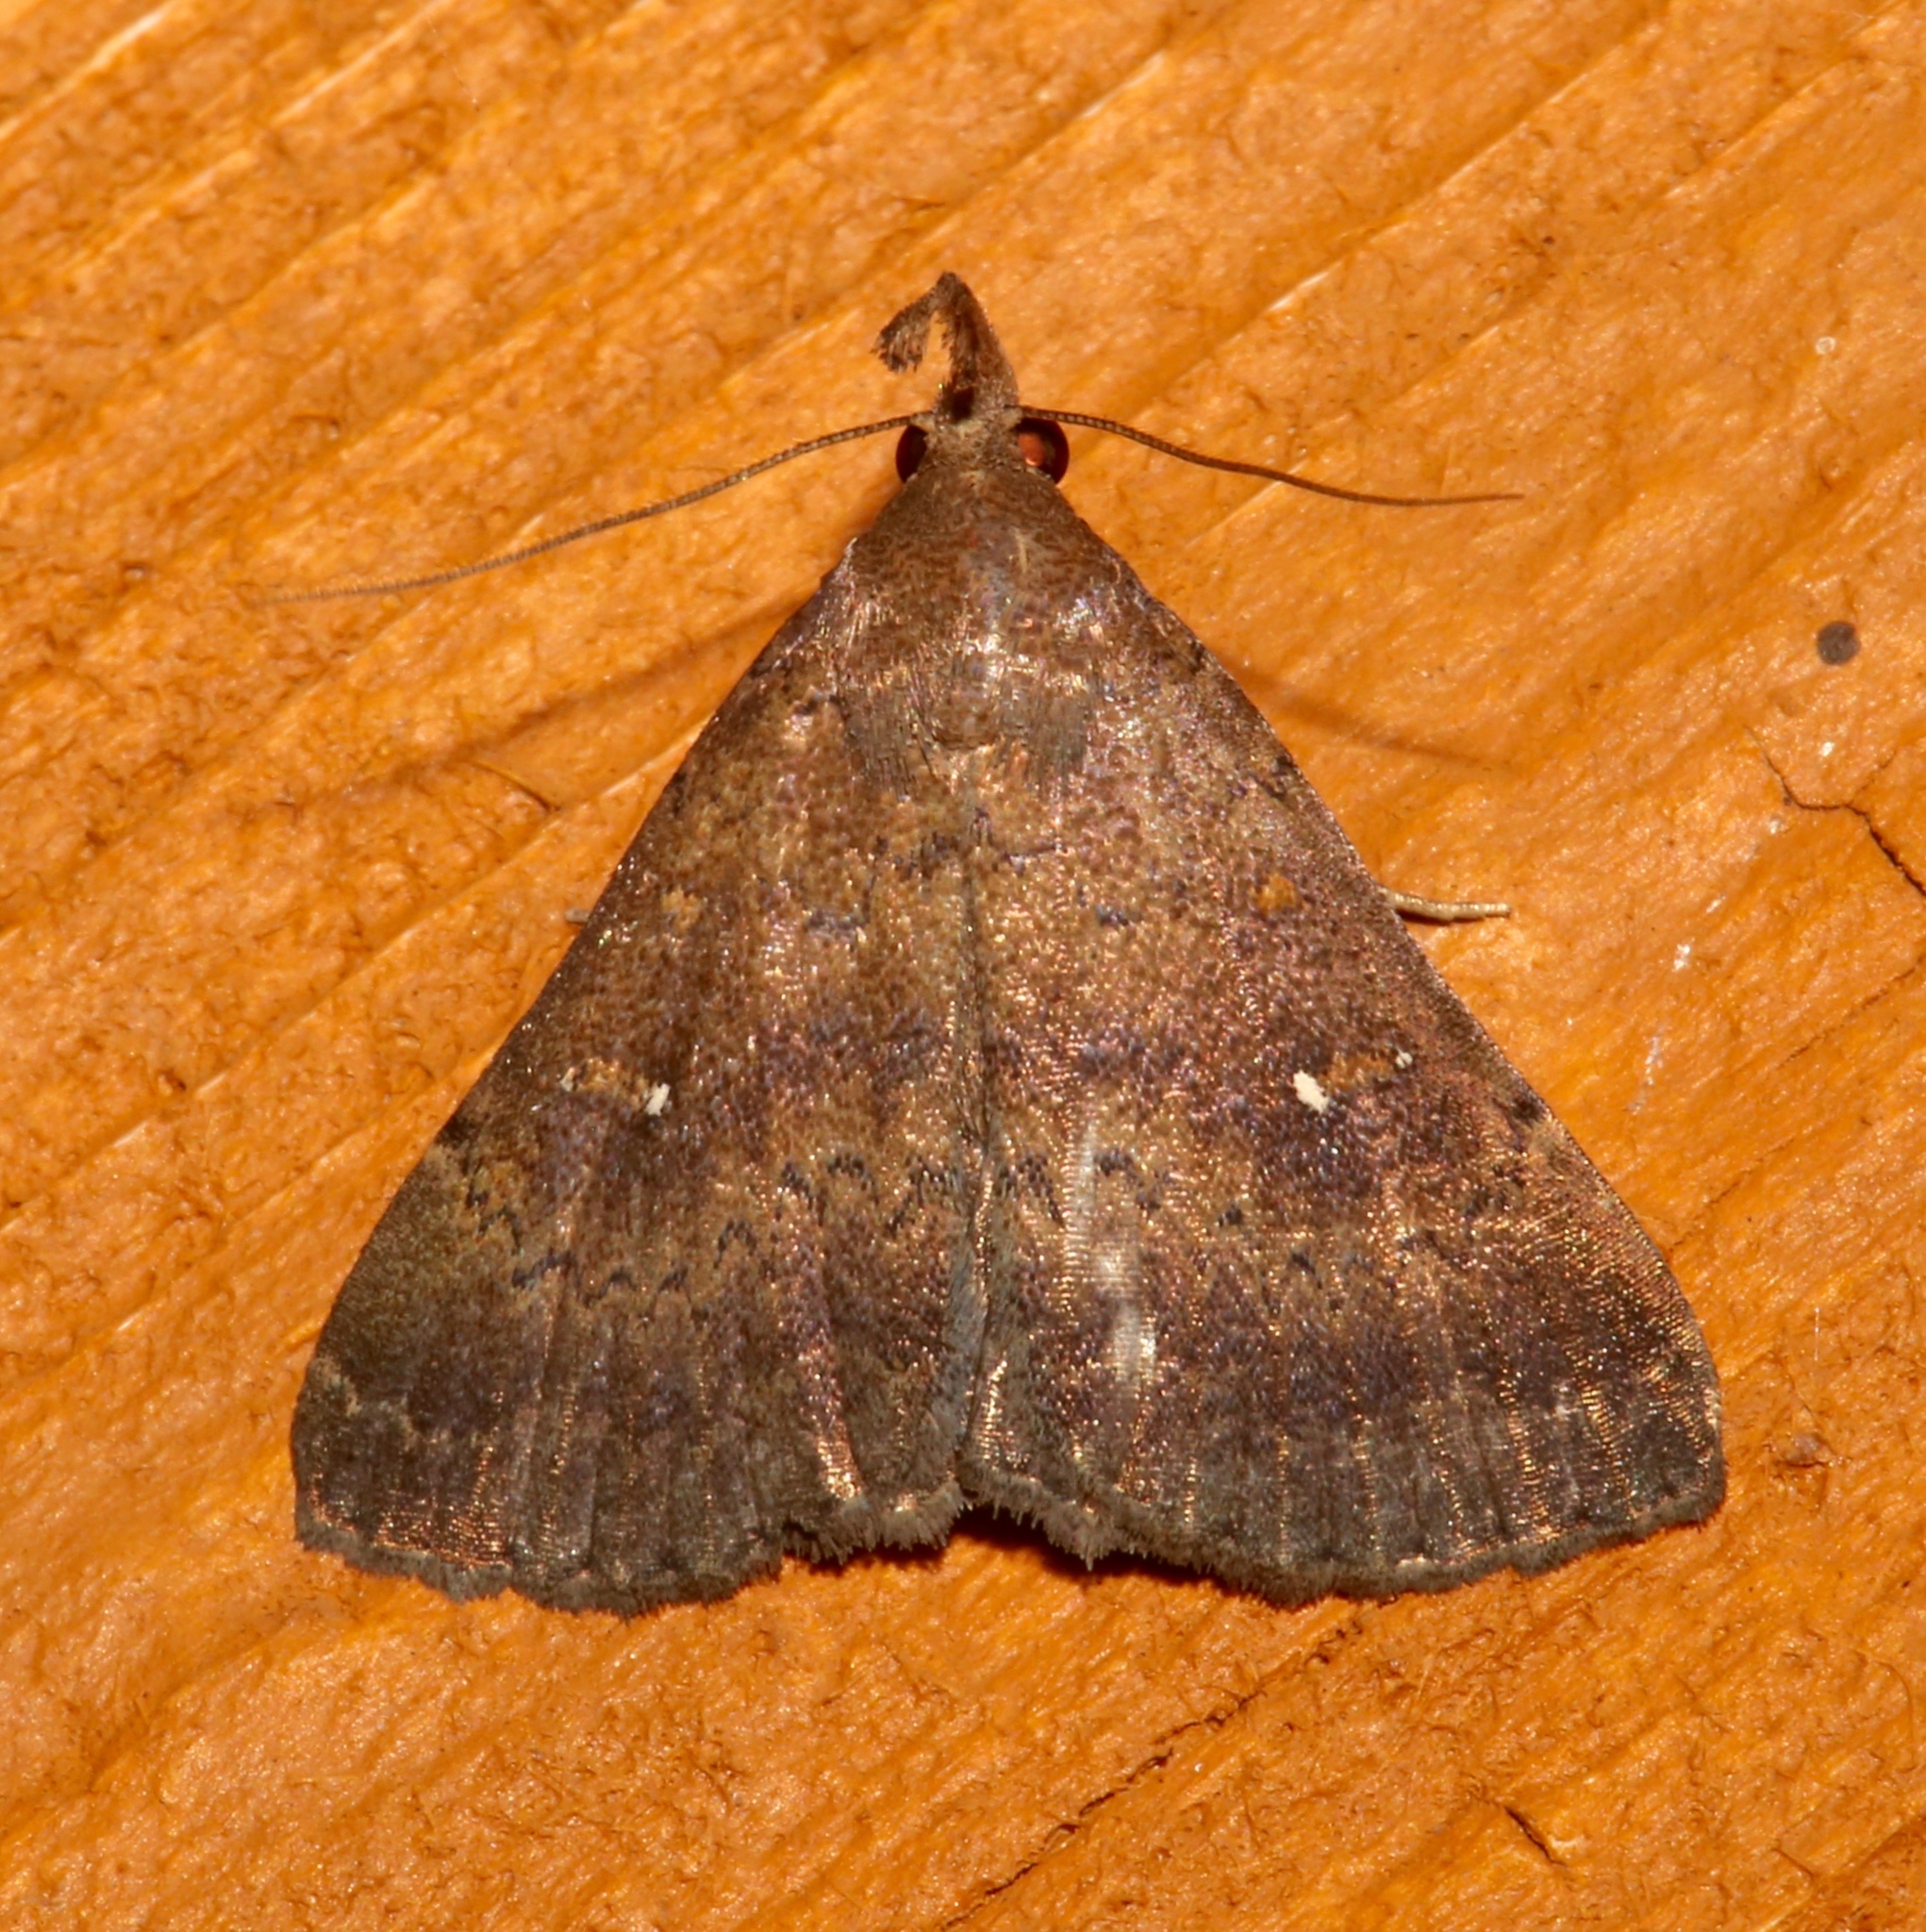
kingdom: Animalia
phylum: Arthropoda
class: Insecta
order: Lepidoptera
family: Erebidae
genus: Hypenula
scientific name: Hypenula cacuminalis
